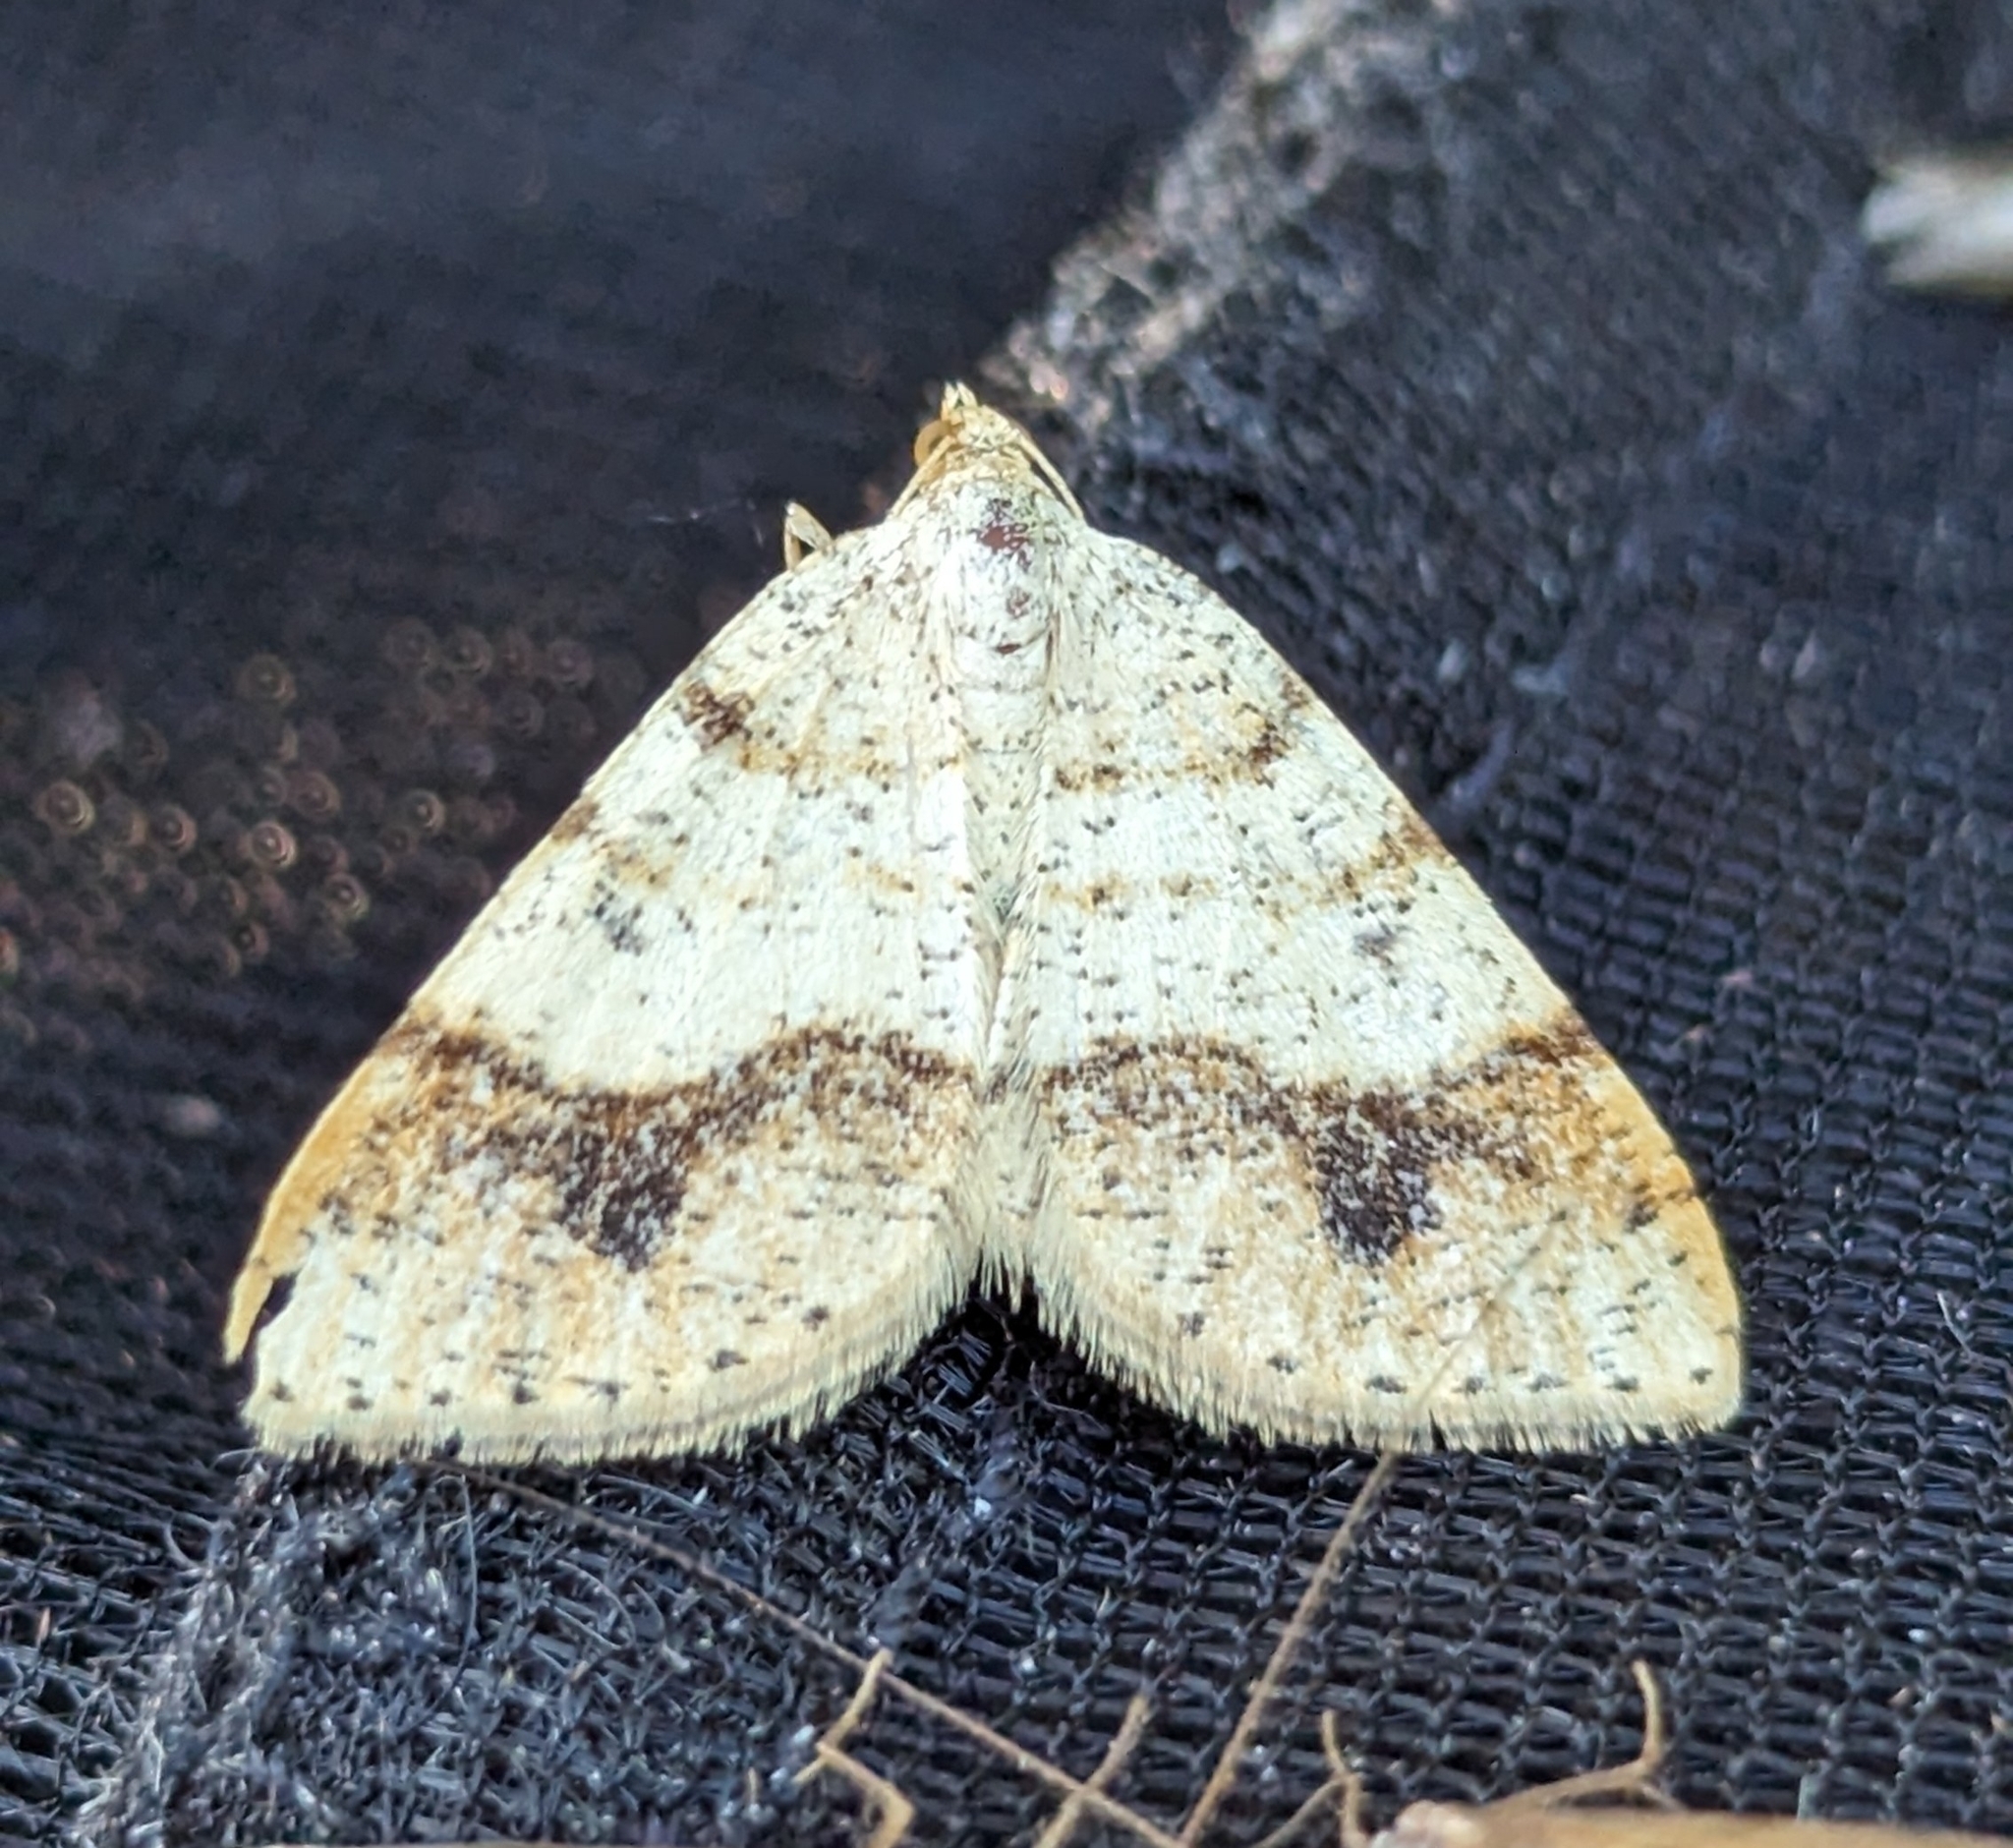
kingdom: Animalia
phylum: Arthropoda
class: Insecta
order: Lepidoptera
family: Geometridae
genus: Macaria
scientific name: Macaria plumosata
